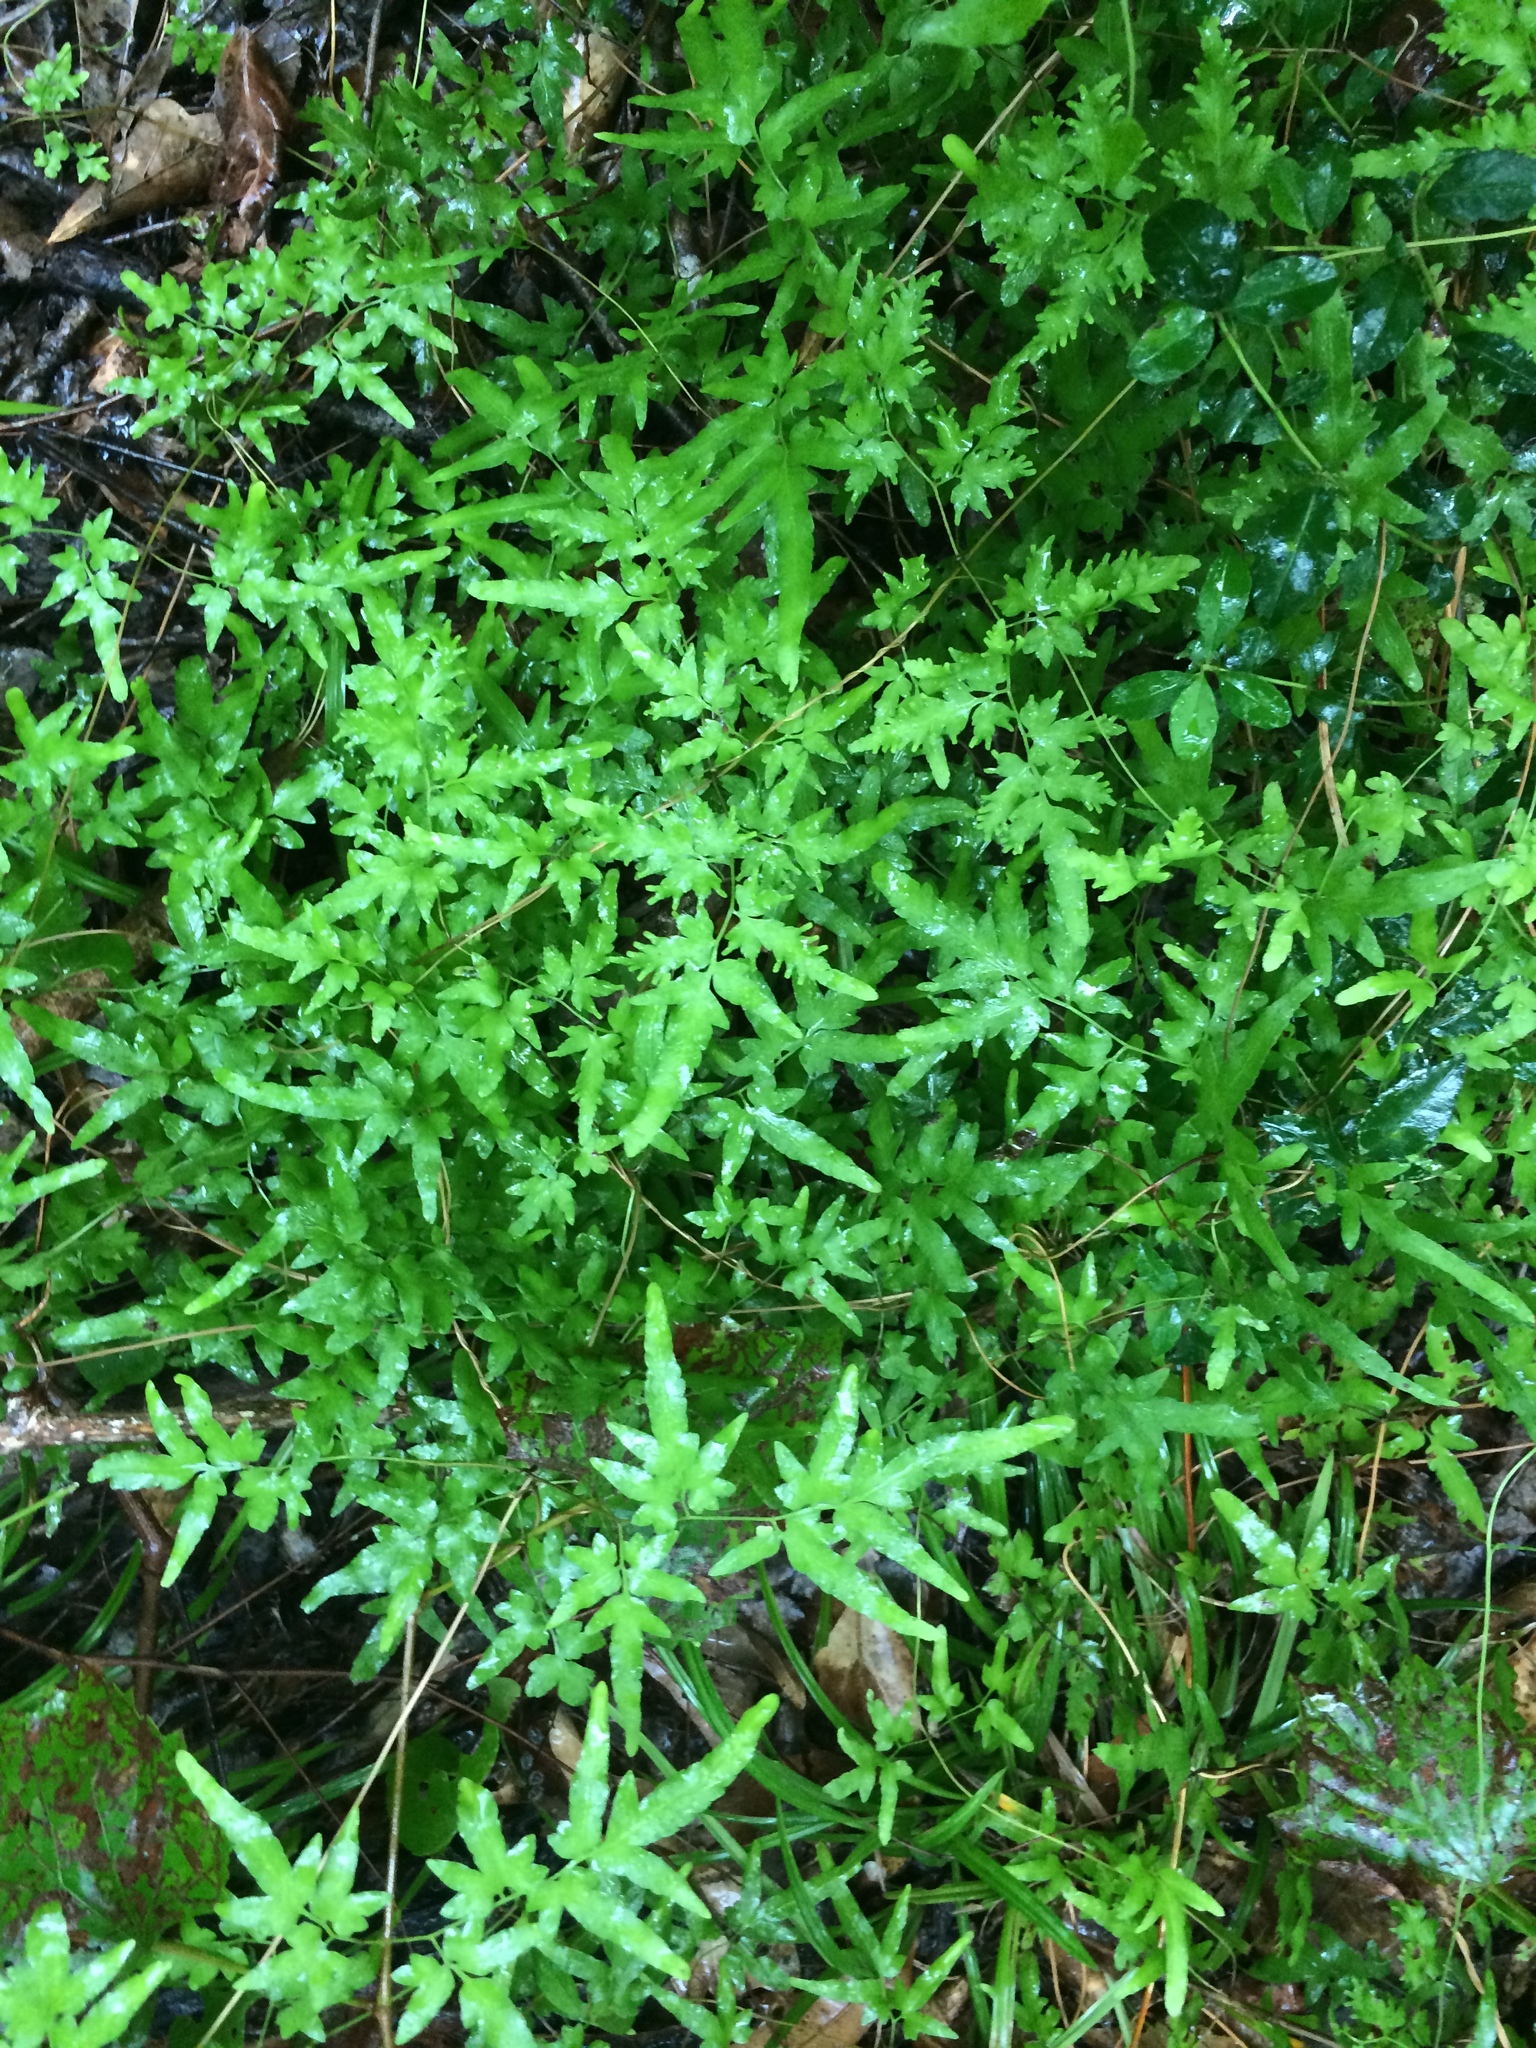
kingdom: Plantae
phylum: Tracheophyta
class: Polypodiopsida
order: Schizaeales
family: Lygodiaceae
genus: Lygodium
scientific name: Lygodium japonicum
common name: Japanese climbing fern
